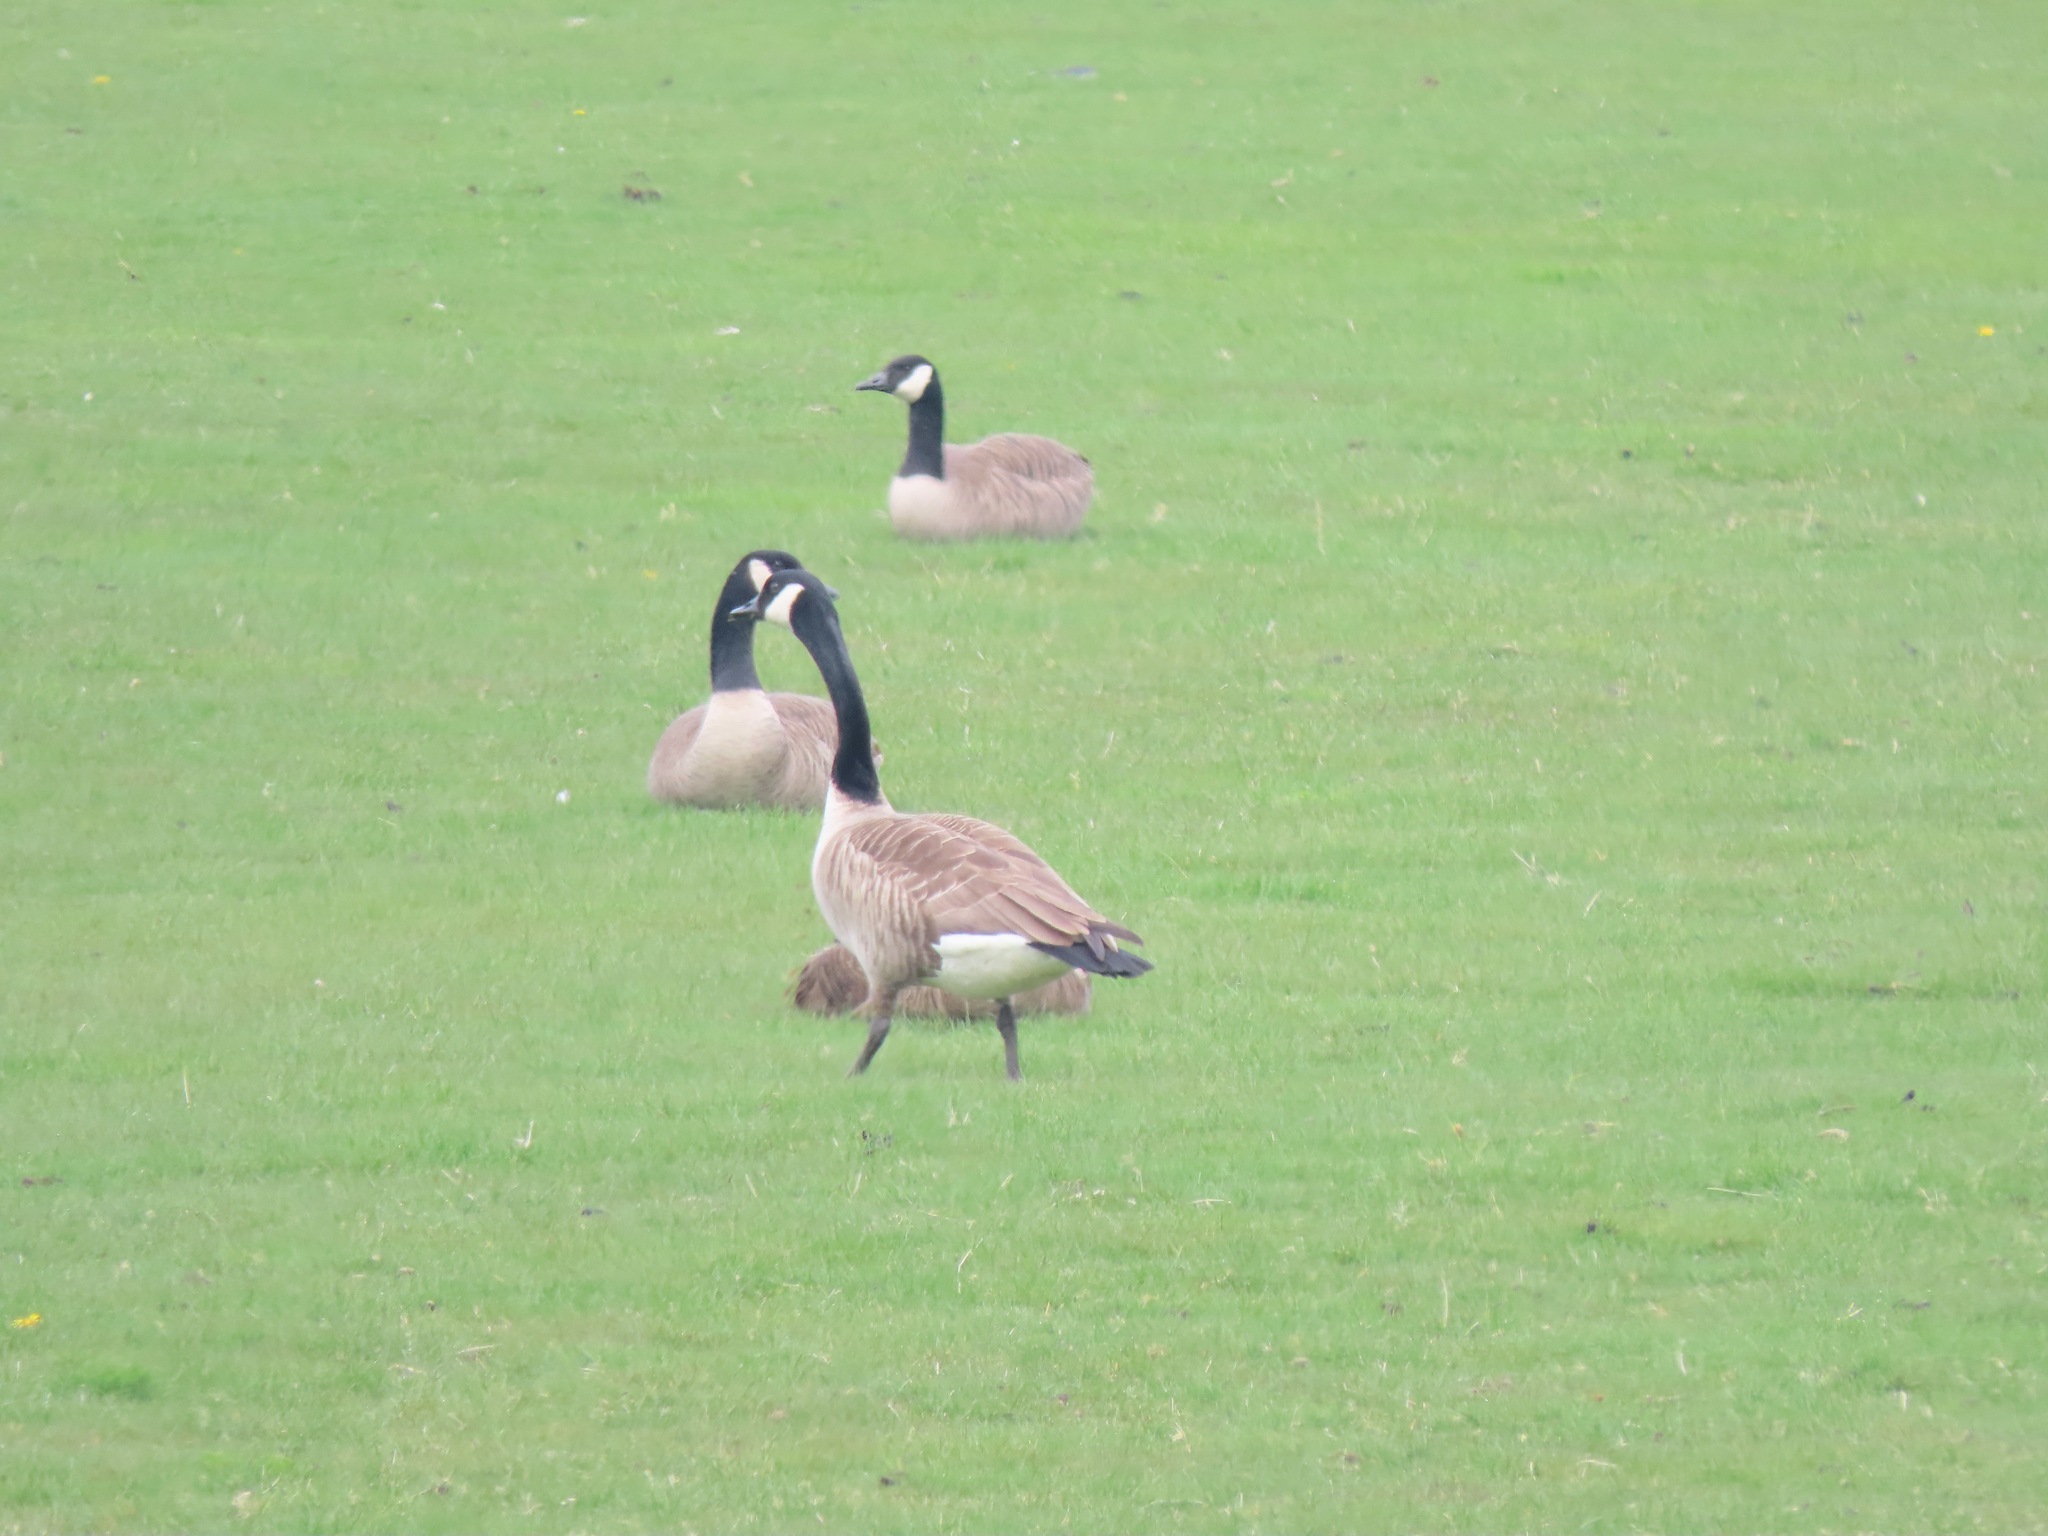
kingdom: Animalia
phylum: Chordata
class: Aves
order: Anseriformes
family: Anatidae
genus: Branta
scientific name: Branta canadensis
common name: Canada goose
